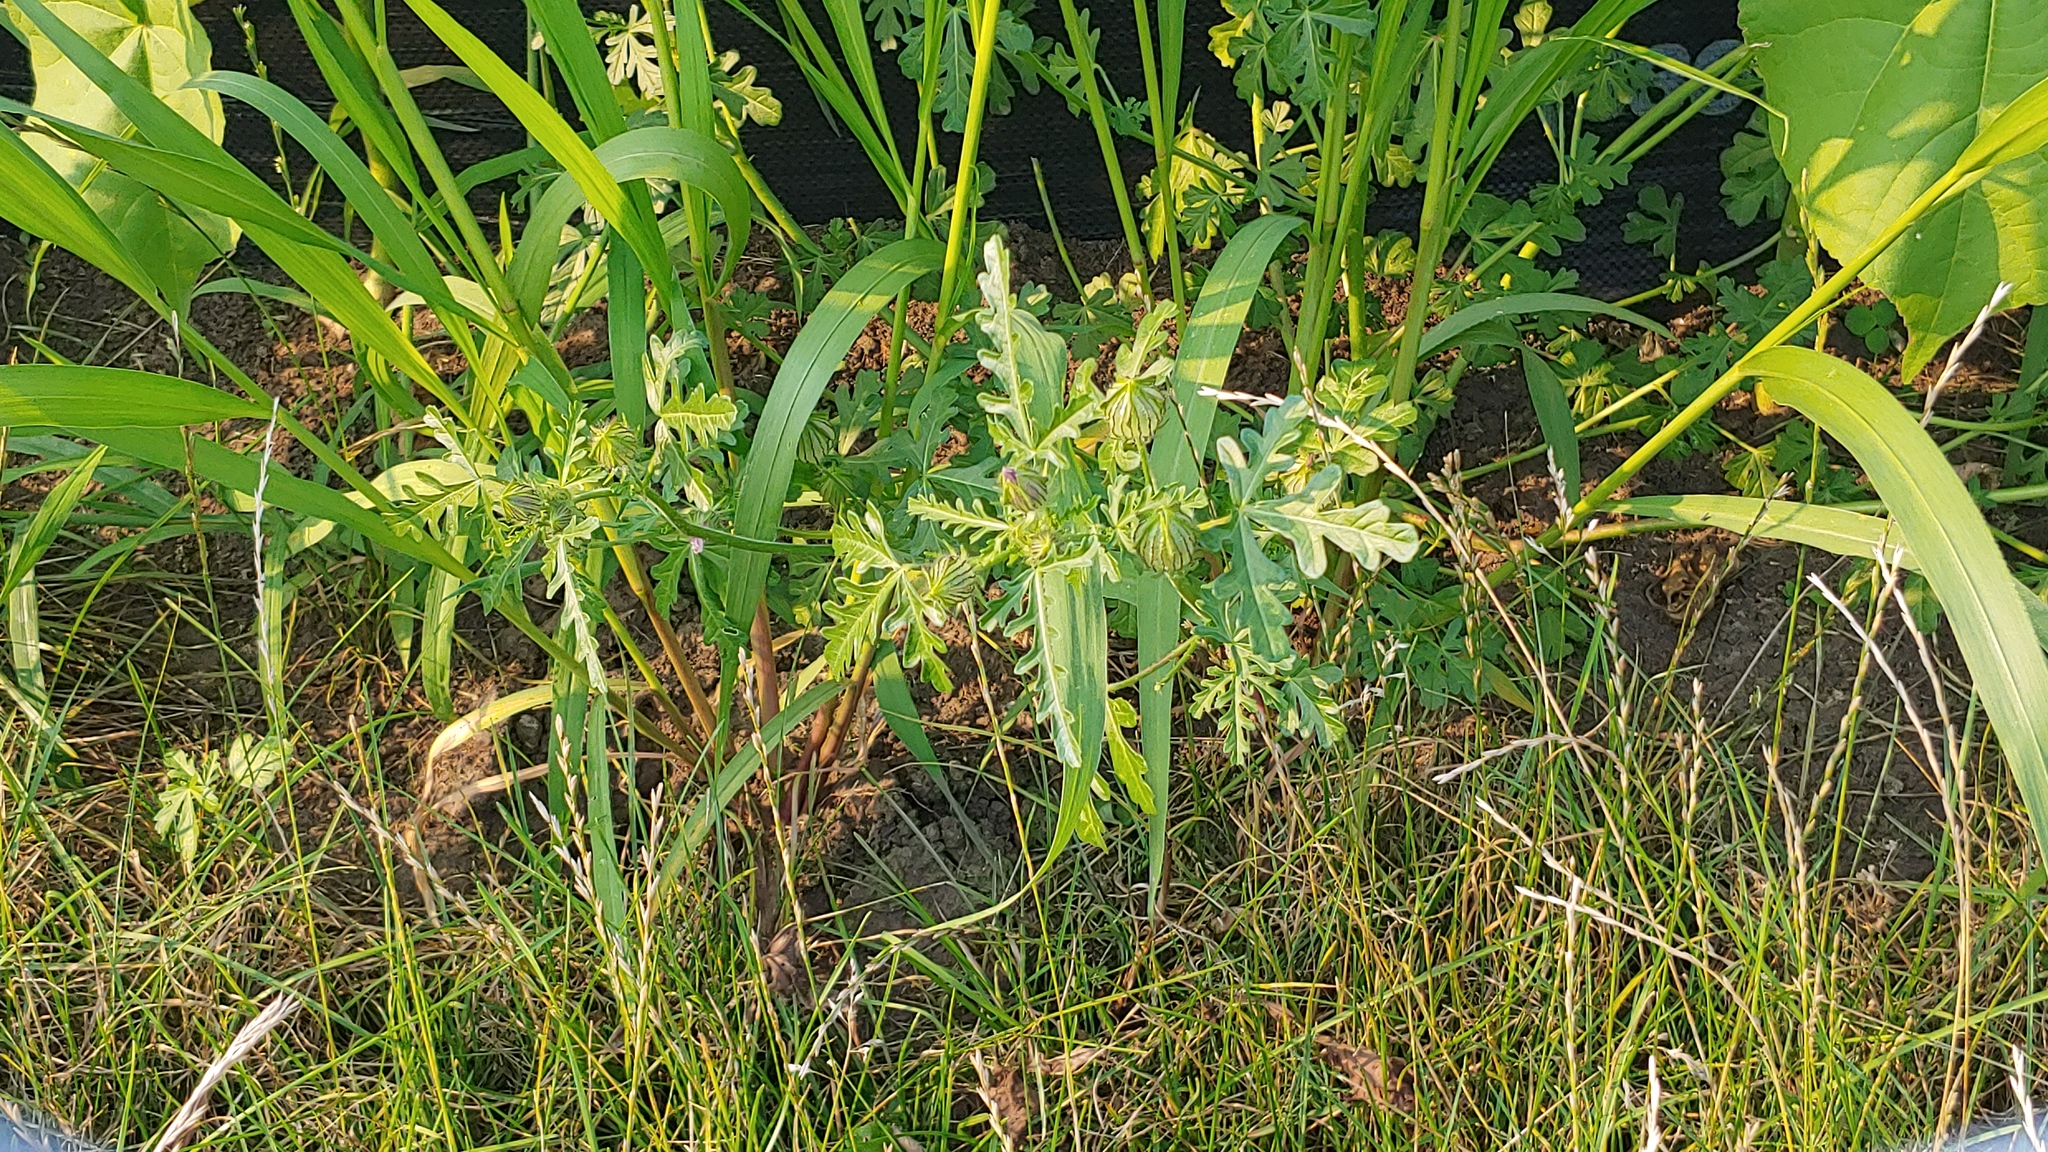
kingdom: Plantae
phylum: Tracheophyta
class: Magnoliopsida
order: Malvales
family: Malvaceae
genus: Hibiscus
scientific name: Hibiscus trionum
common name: Bladder ketmia
